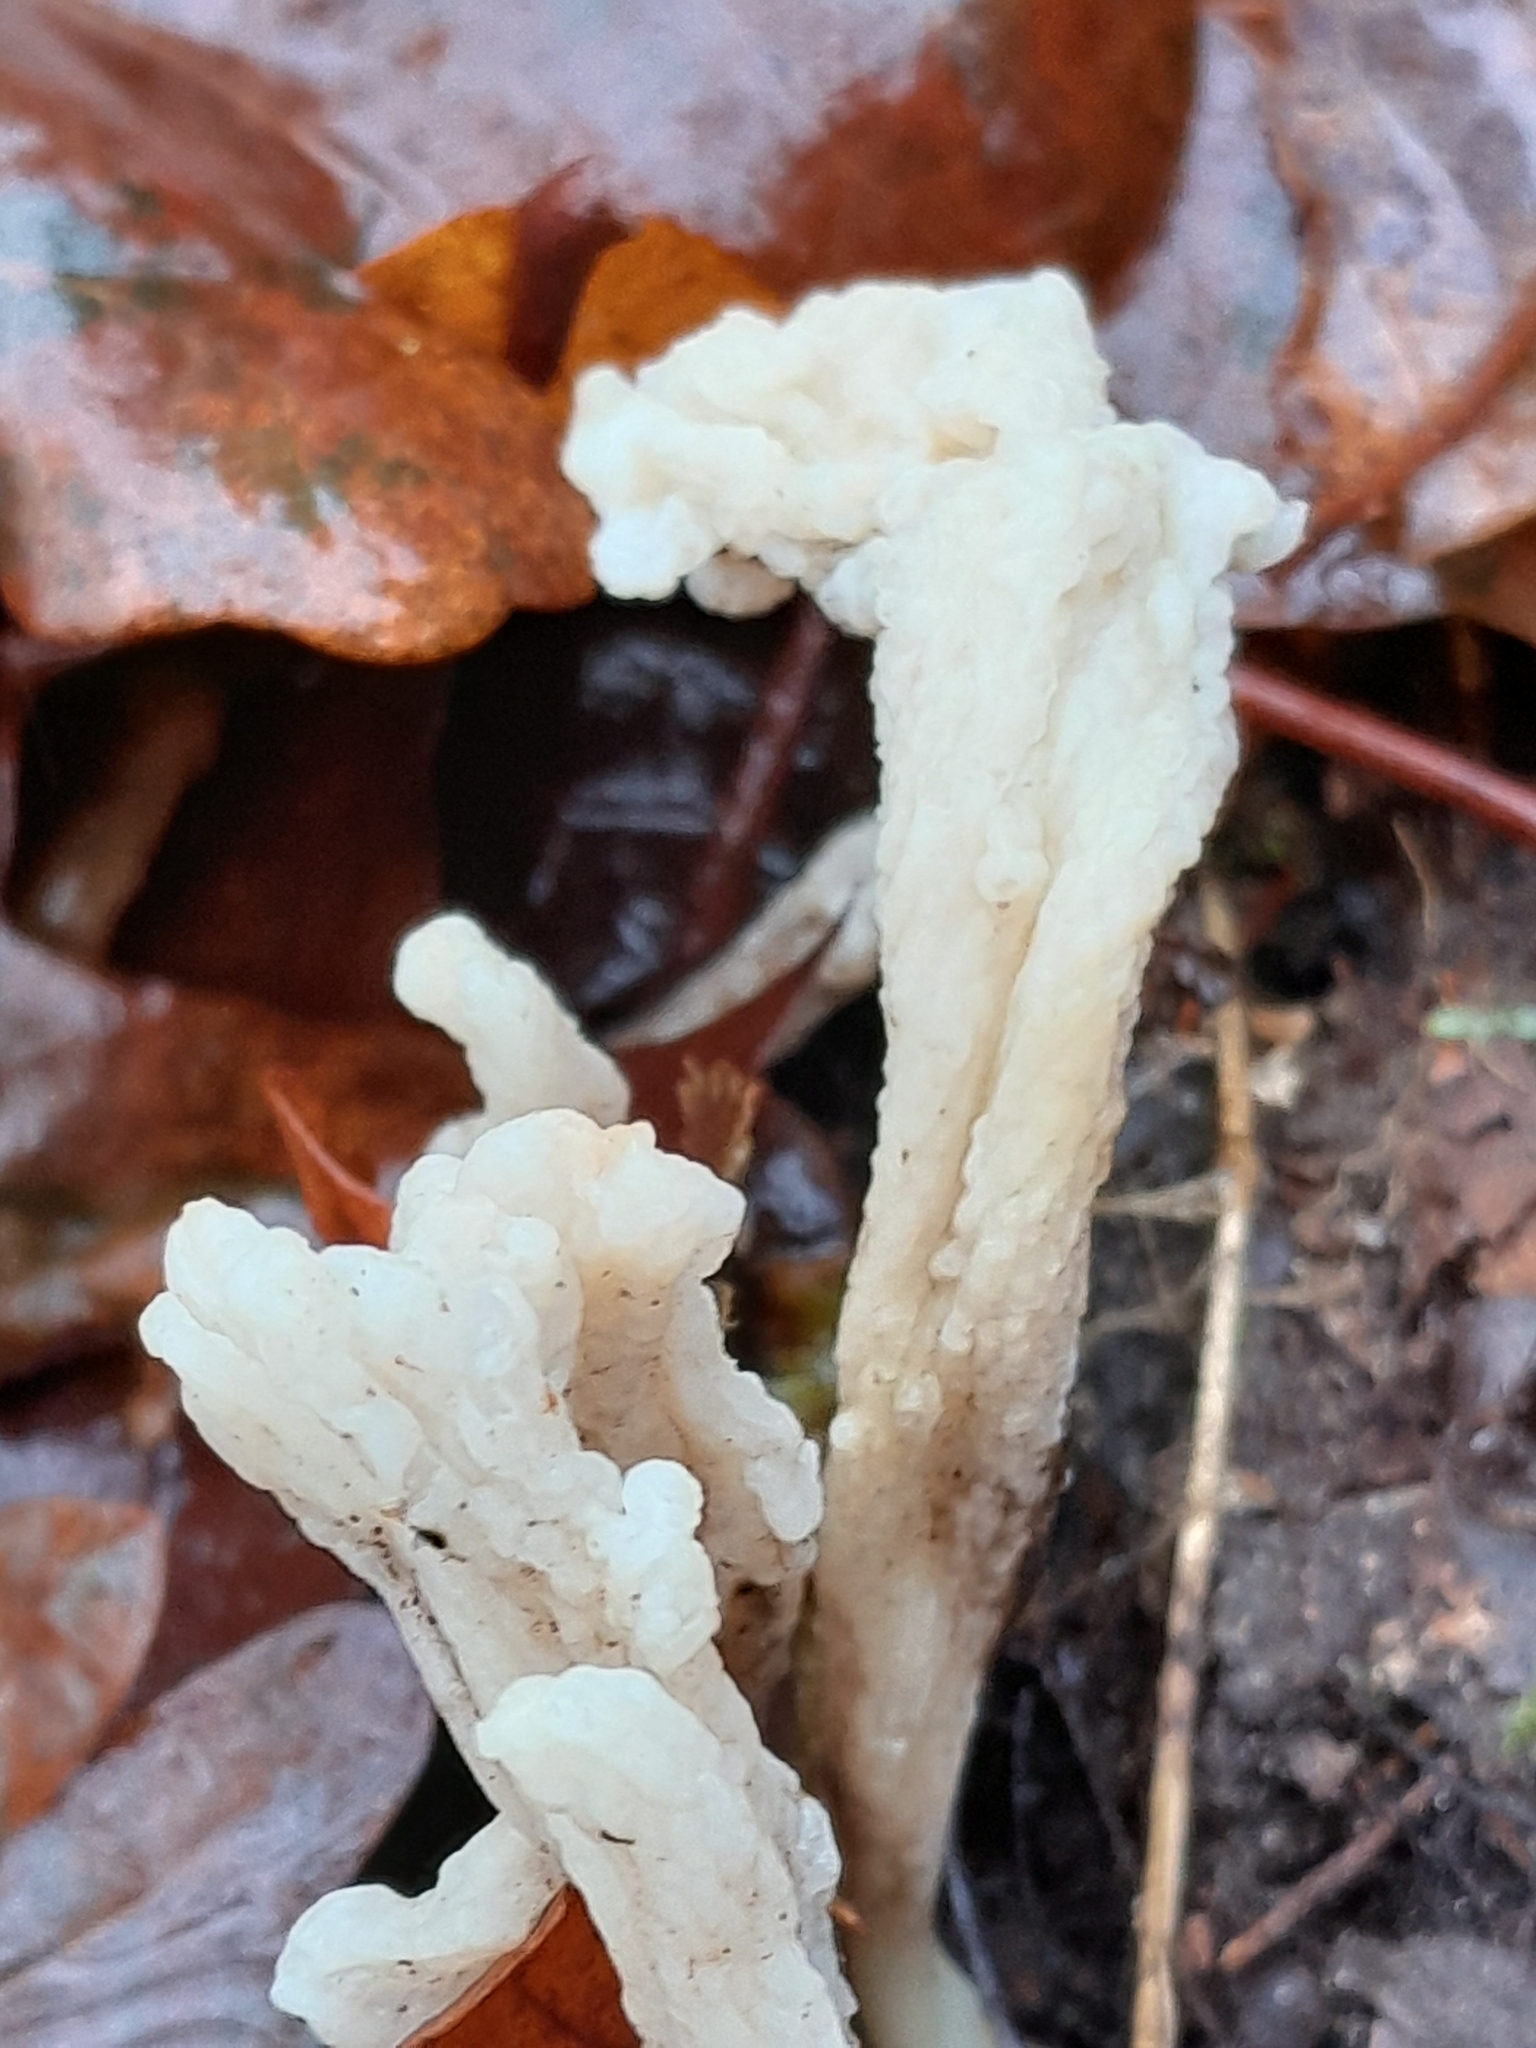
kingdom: Fungi
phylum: Basidiomycota
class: Agaricomycetes
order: Cantharellales
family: Hydnaceae
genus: Clavulina
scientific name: Clavulina rugosa
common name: Wrinkled club
